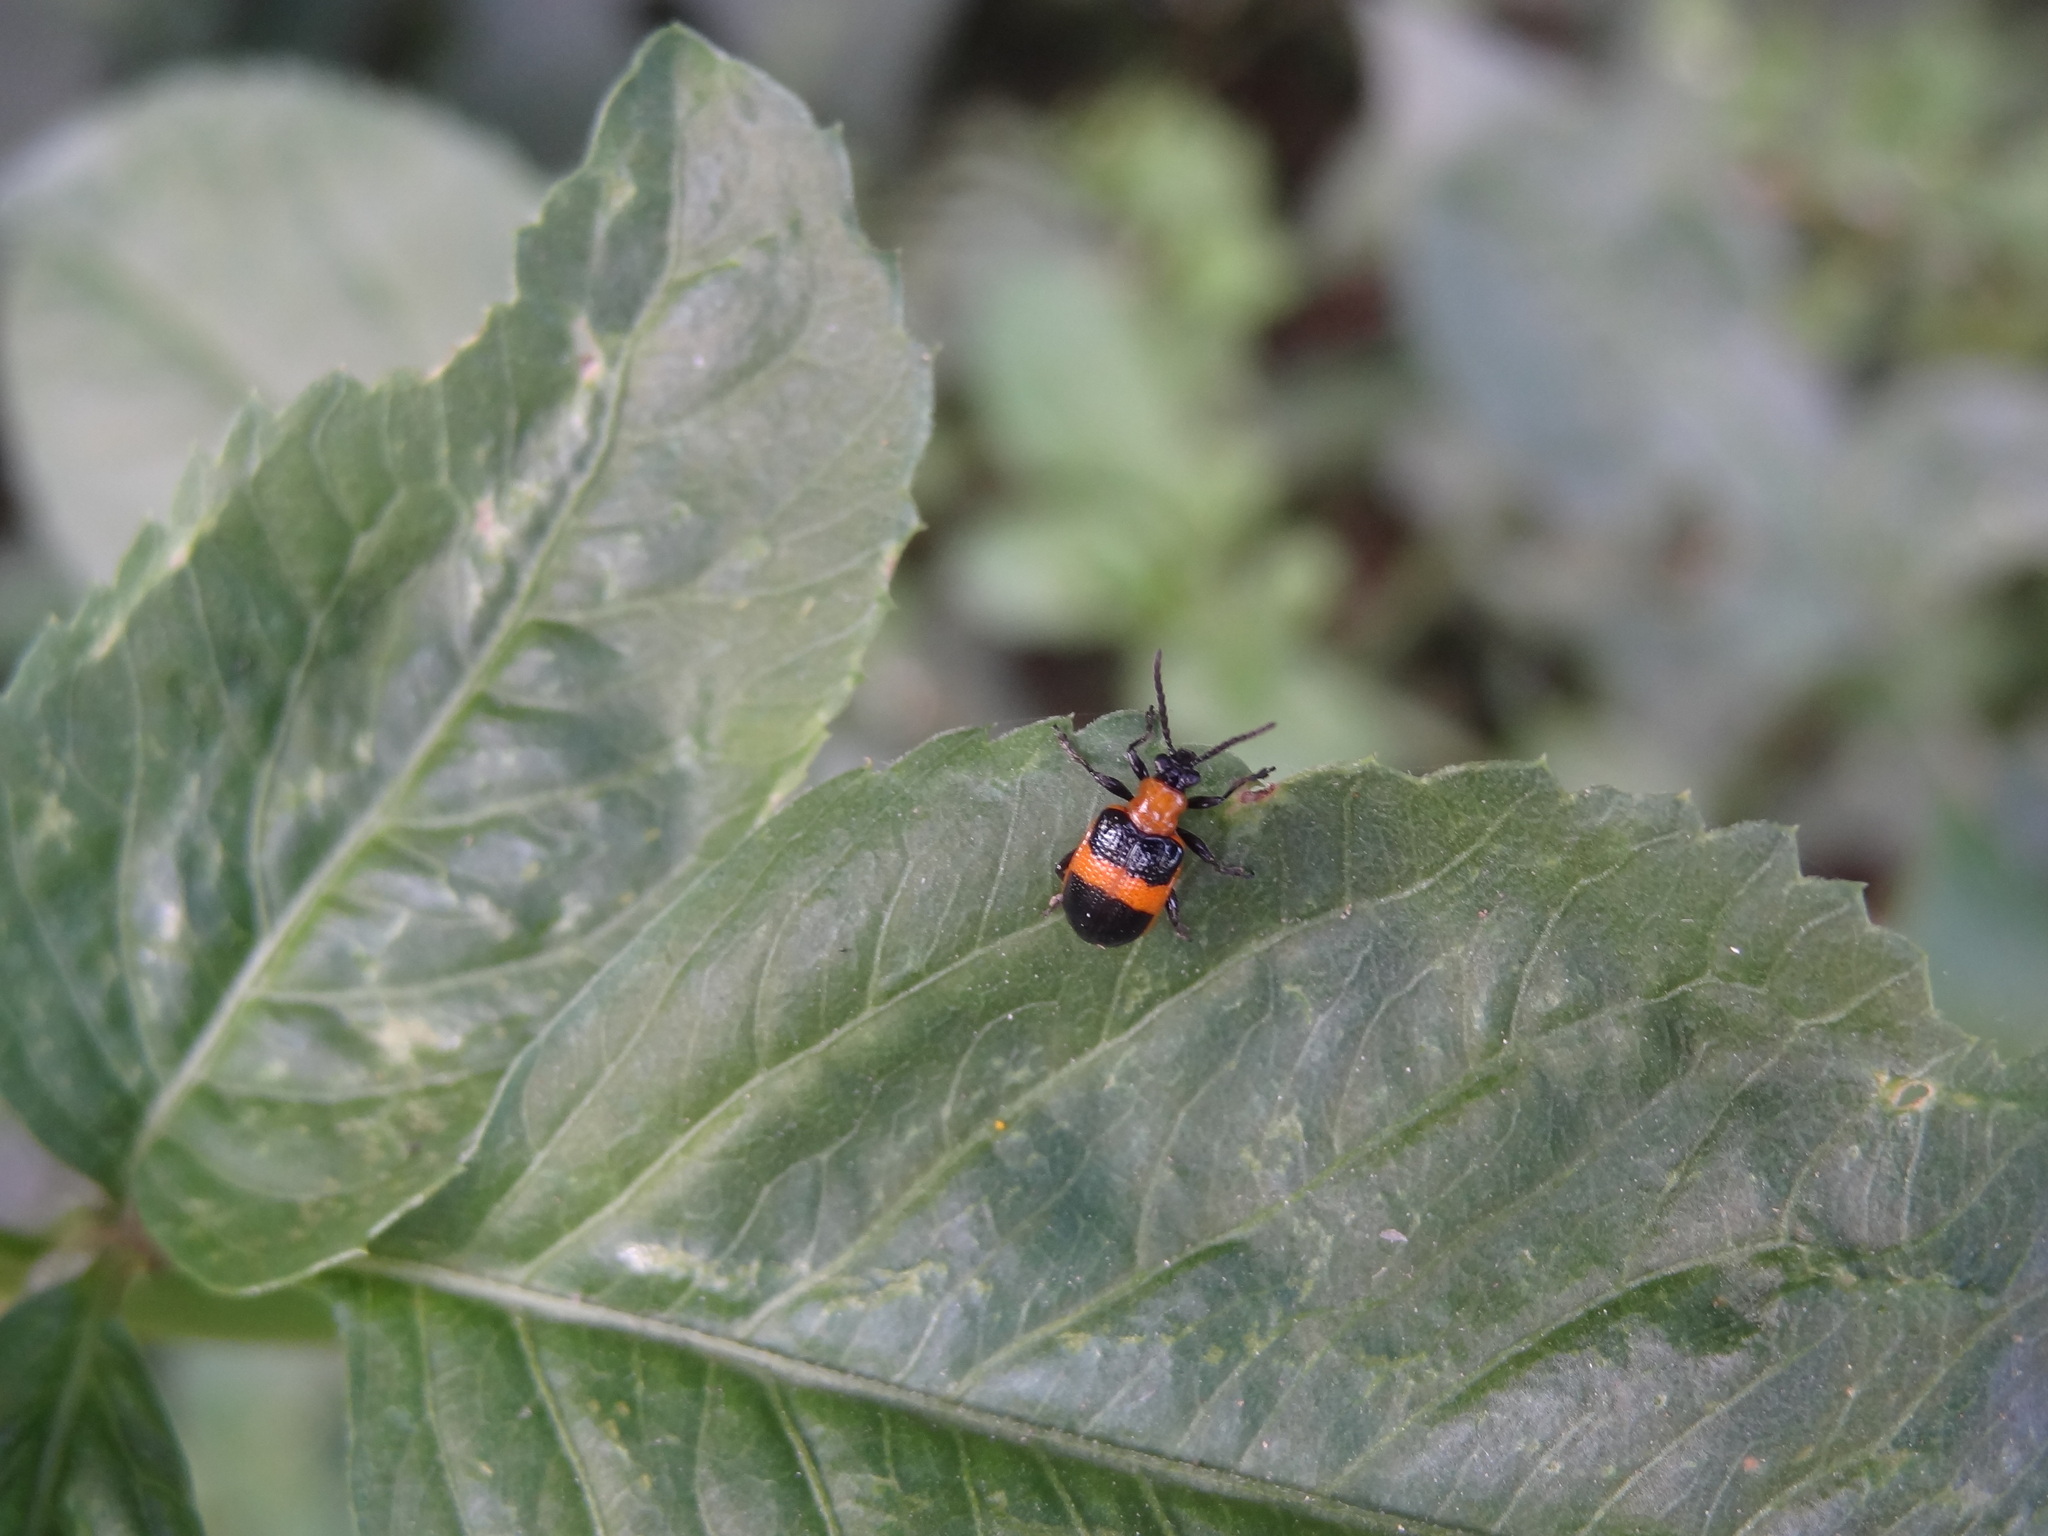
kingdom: Animalia
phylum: Arthropoda
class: Insecta
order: Coleoptera
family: Chrysomelidae
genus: Lema
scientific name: Lema solani
